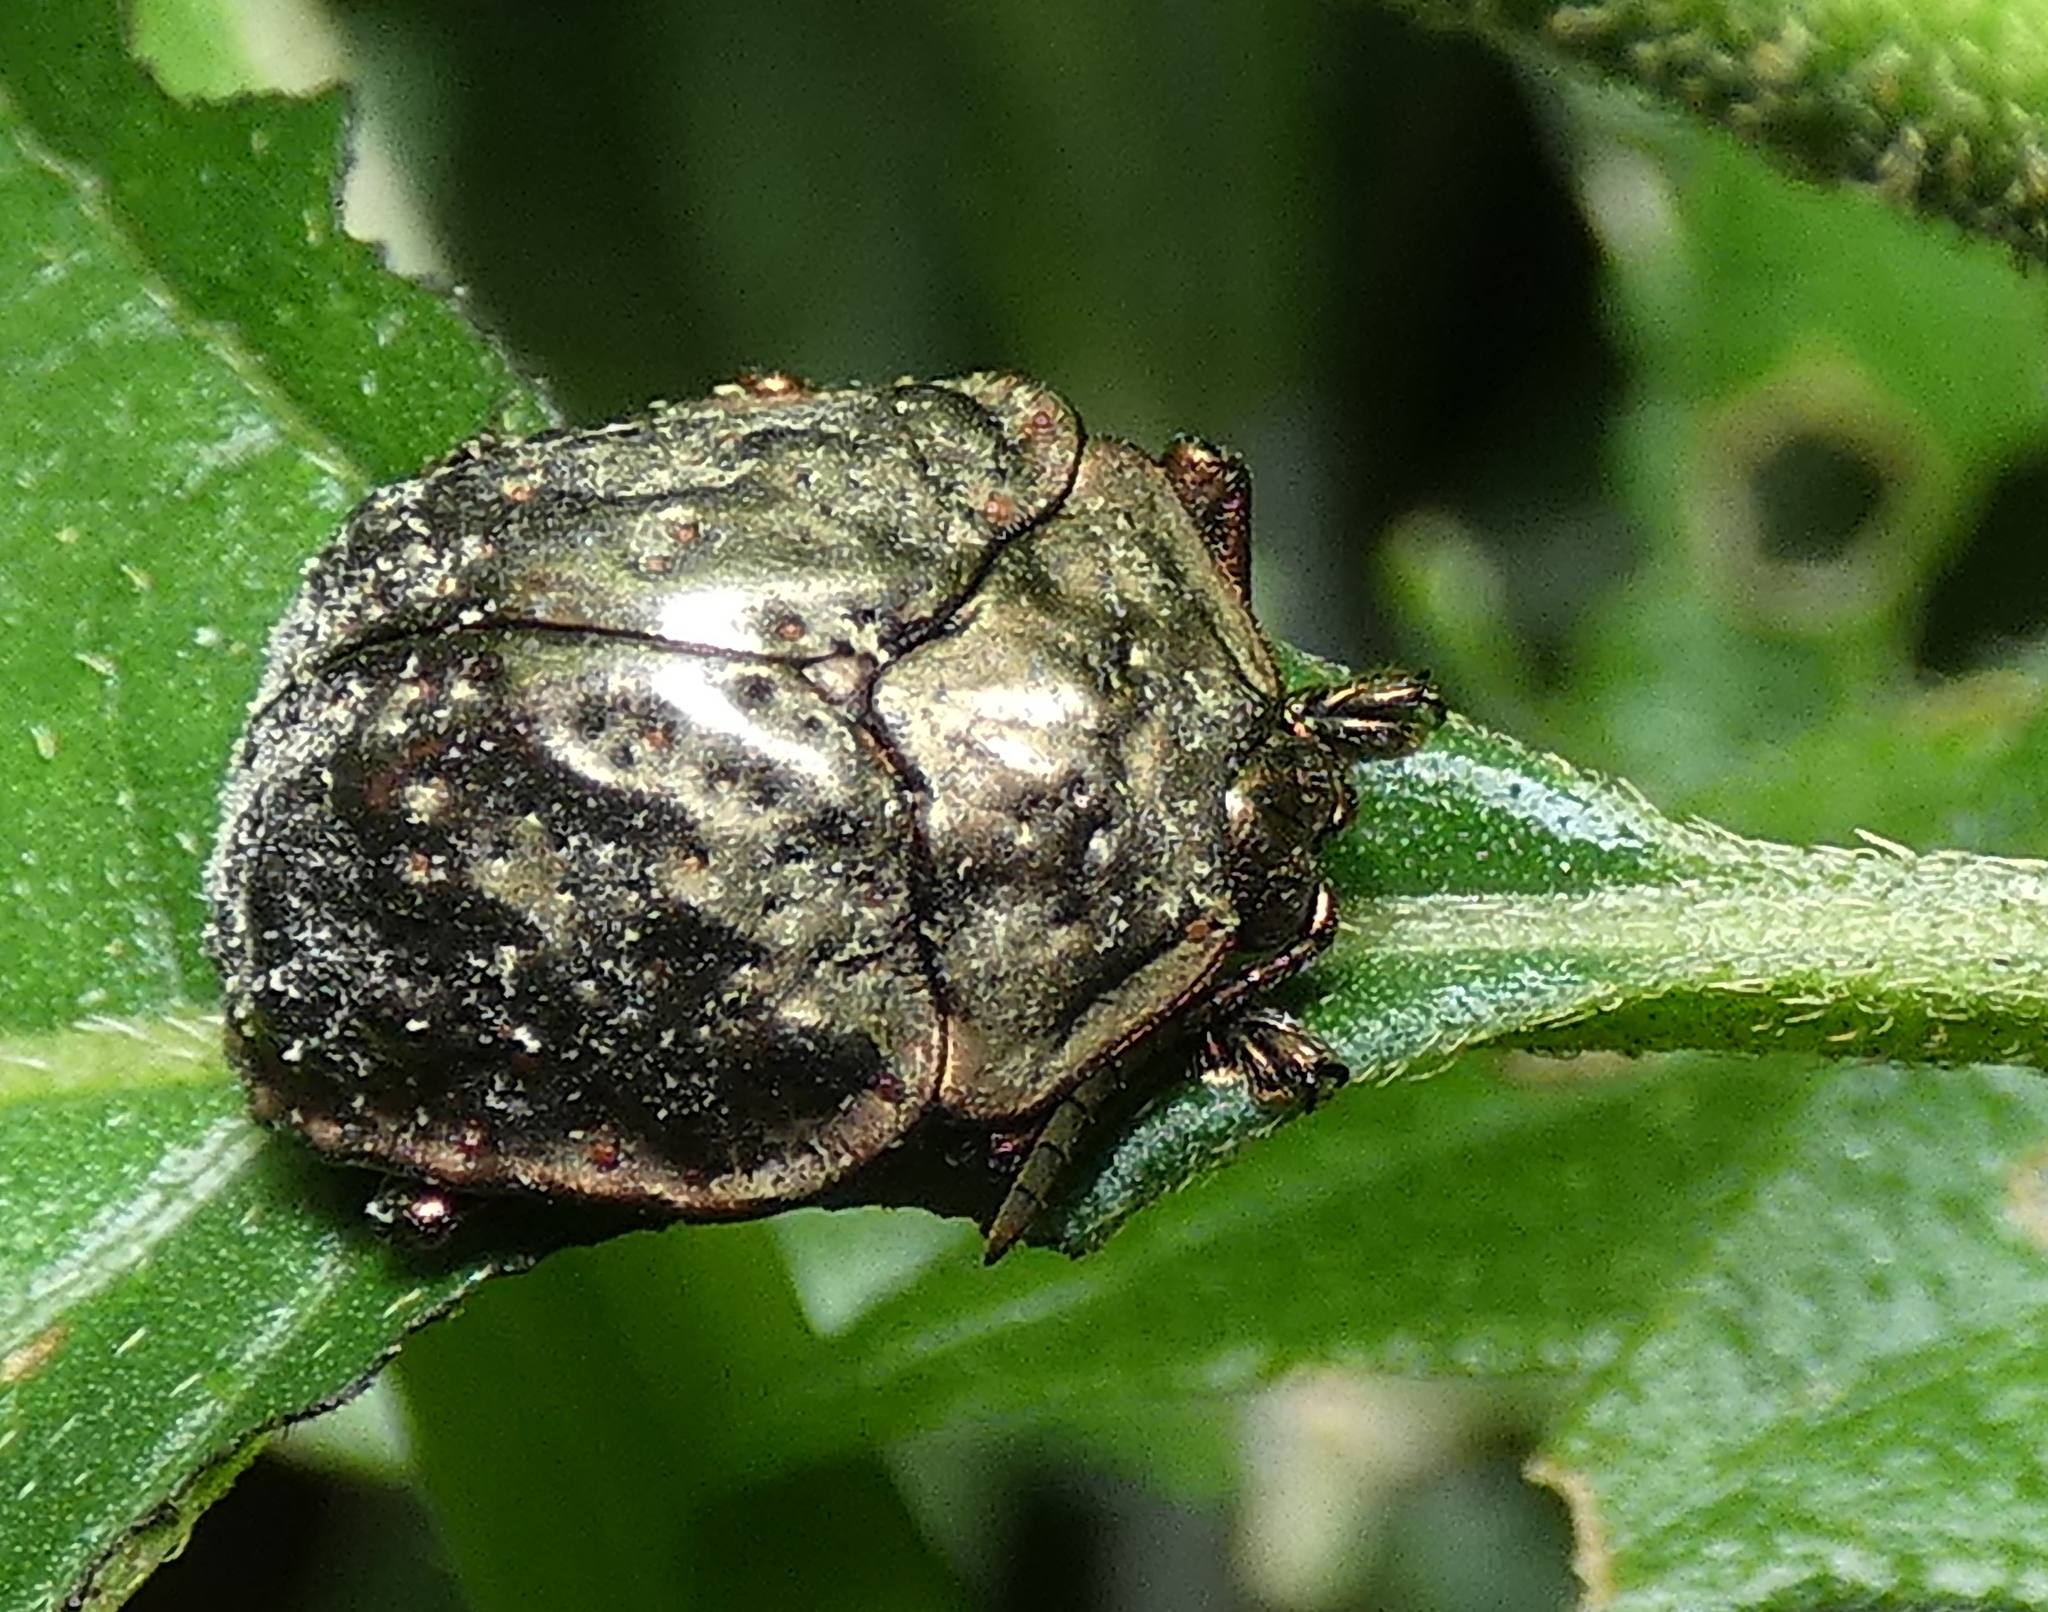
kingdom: Animalia
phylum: Arthropoda
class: Insecta
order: Coleoptera
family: Chrysomelidae
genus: Polychalca
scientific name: Polychalca aerea
